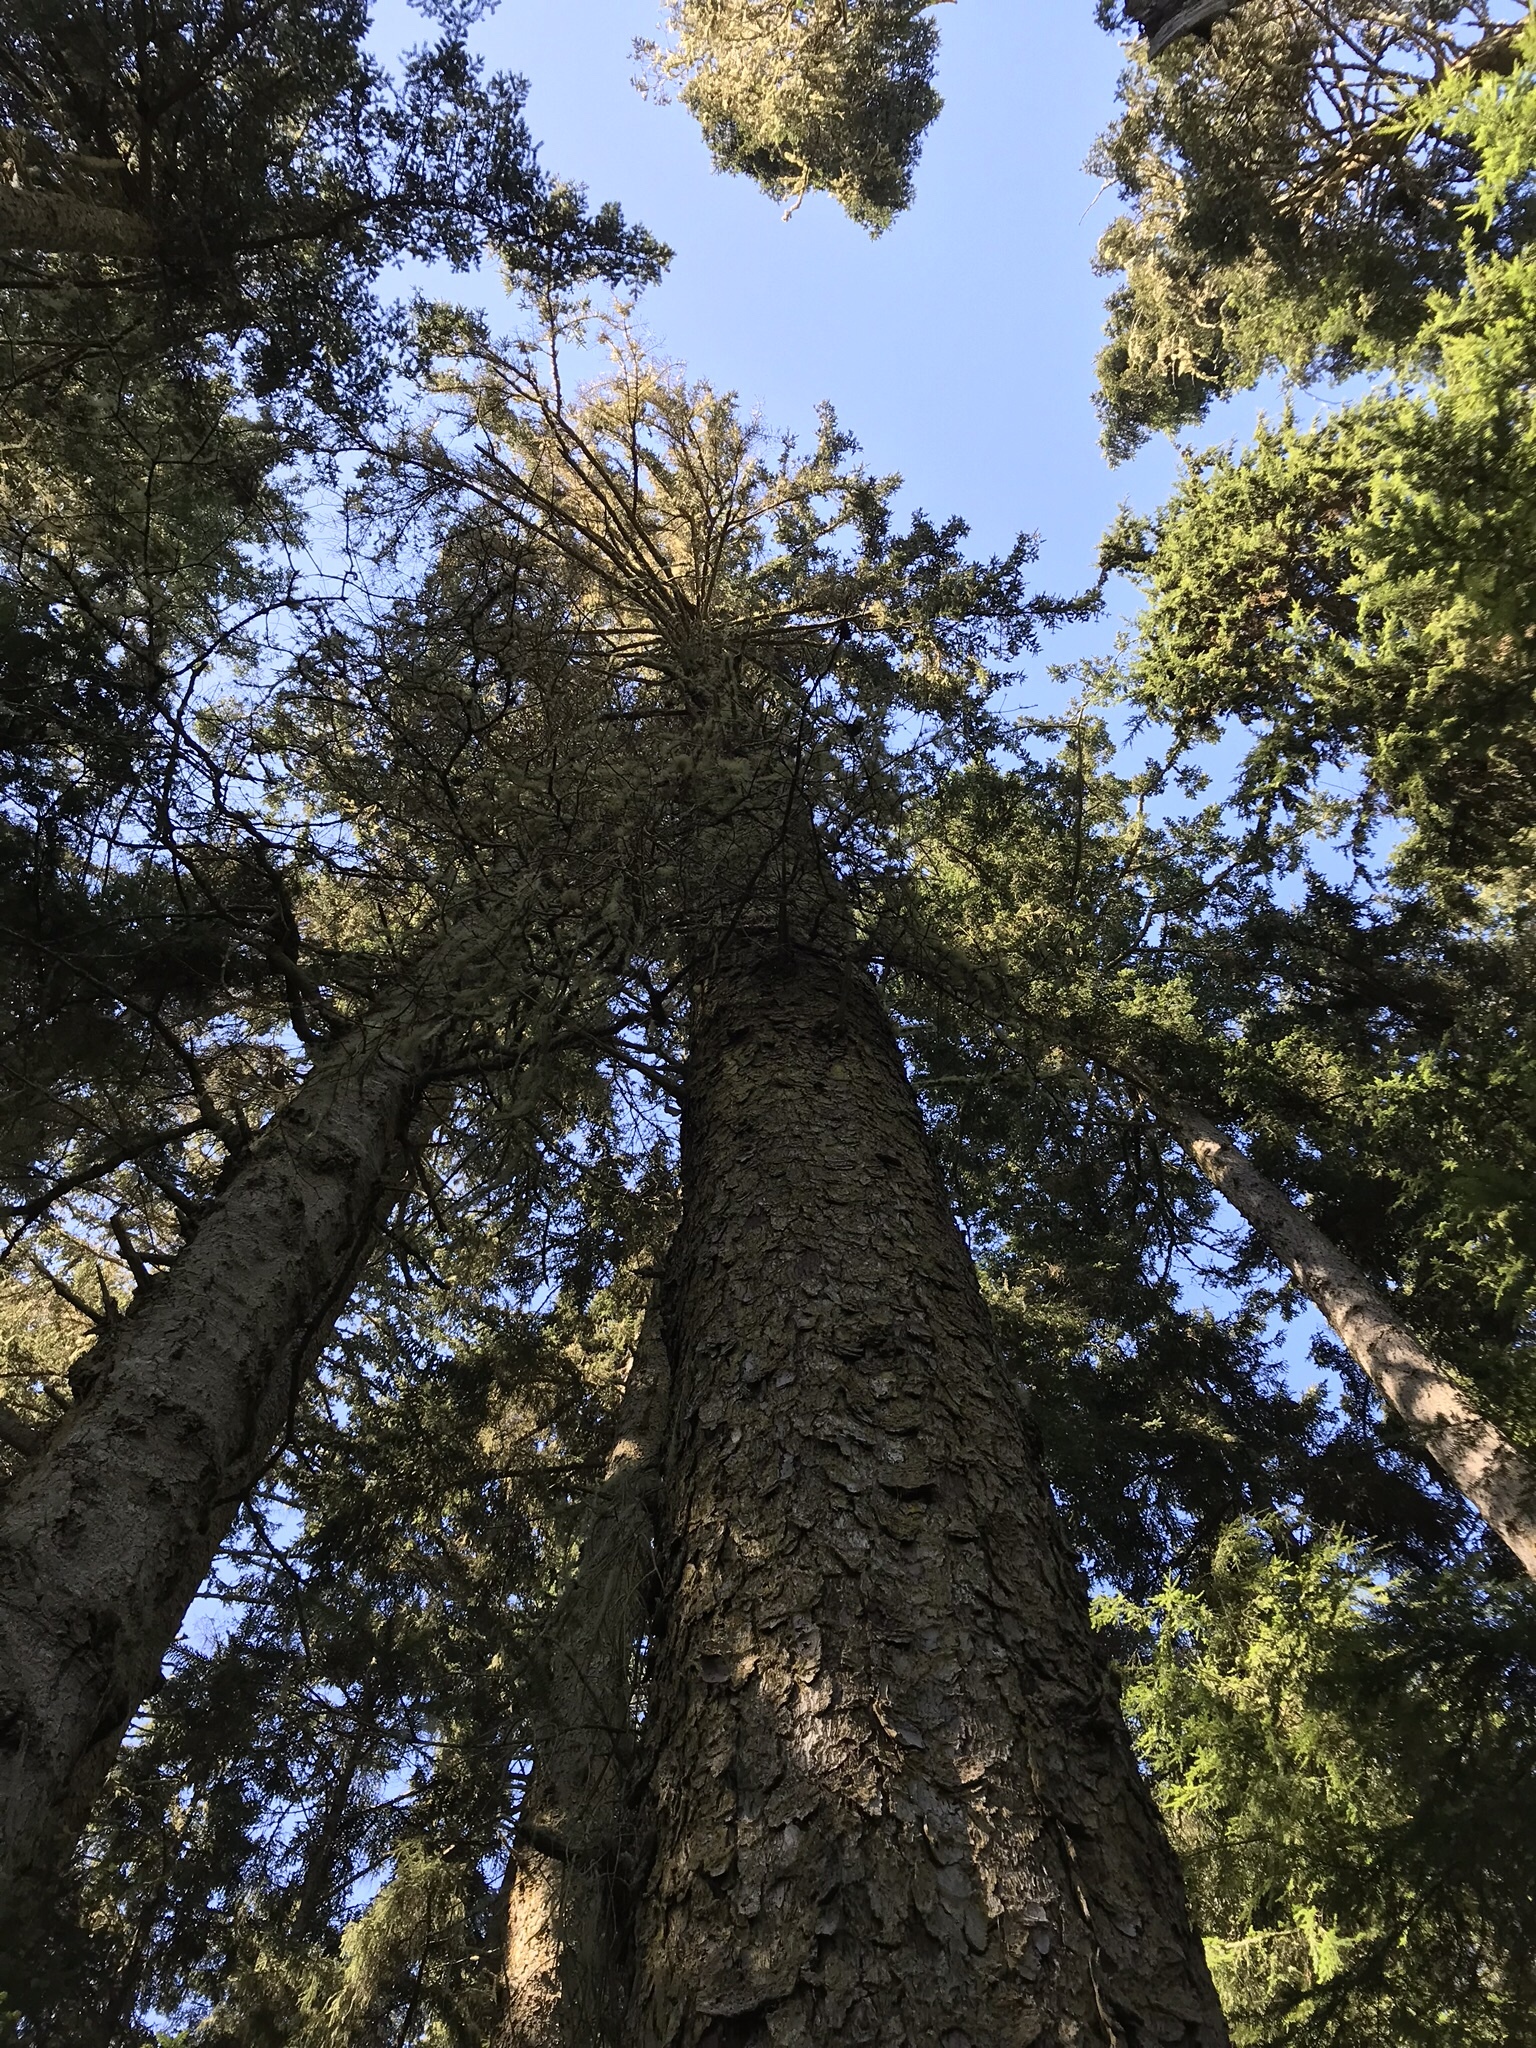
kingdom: Plantae
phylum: Tracheophyta
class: Pinopsida
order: Pinales
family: Pinaceae
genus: Picea
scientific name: Picea sitchensis
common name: Sitka spruce
